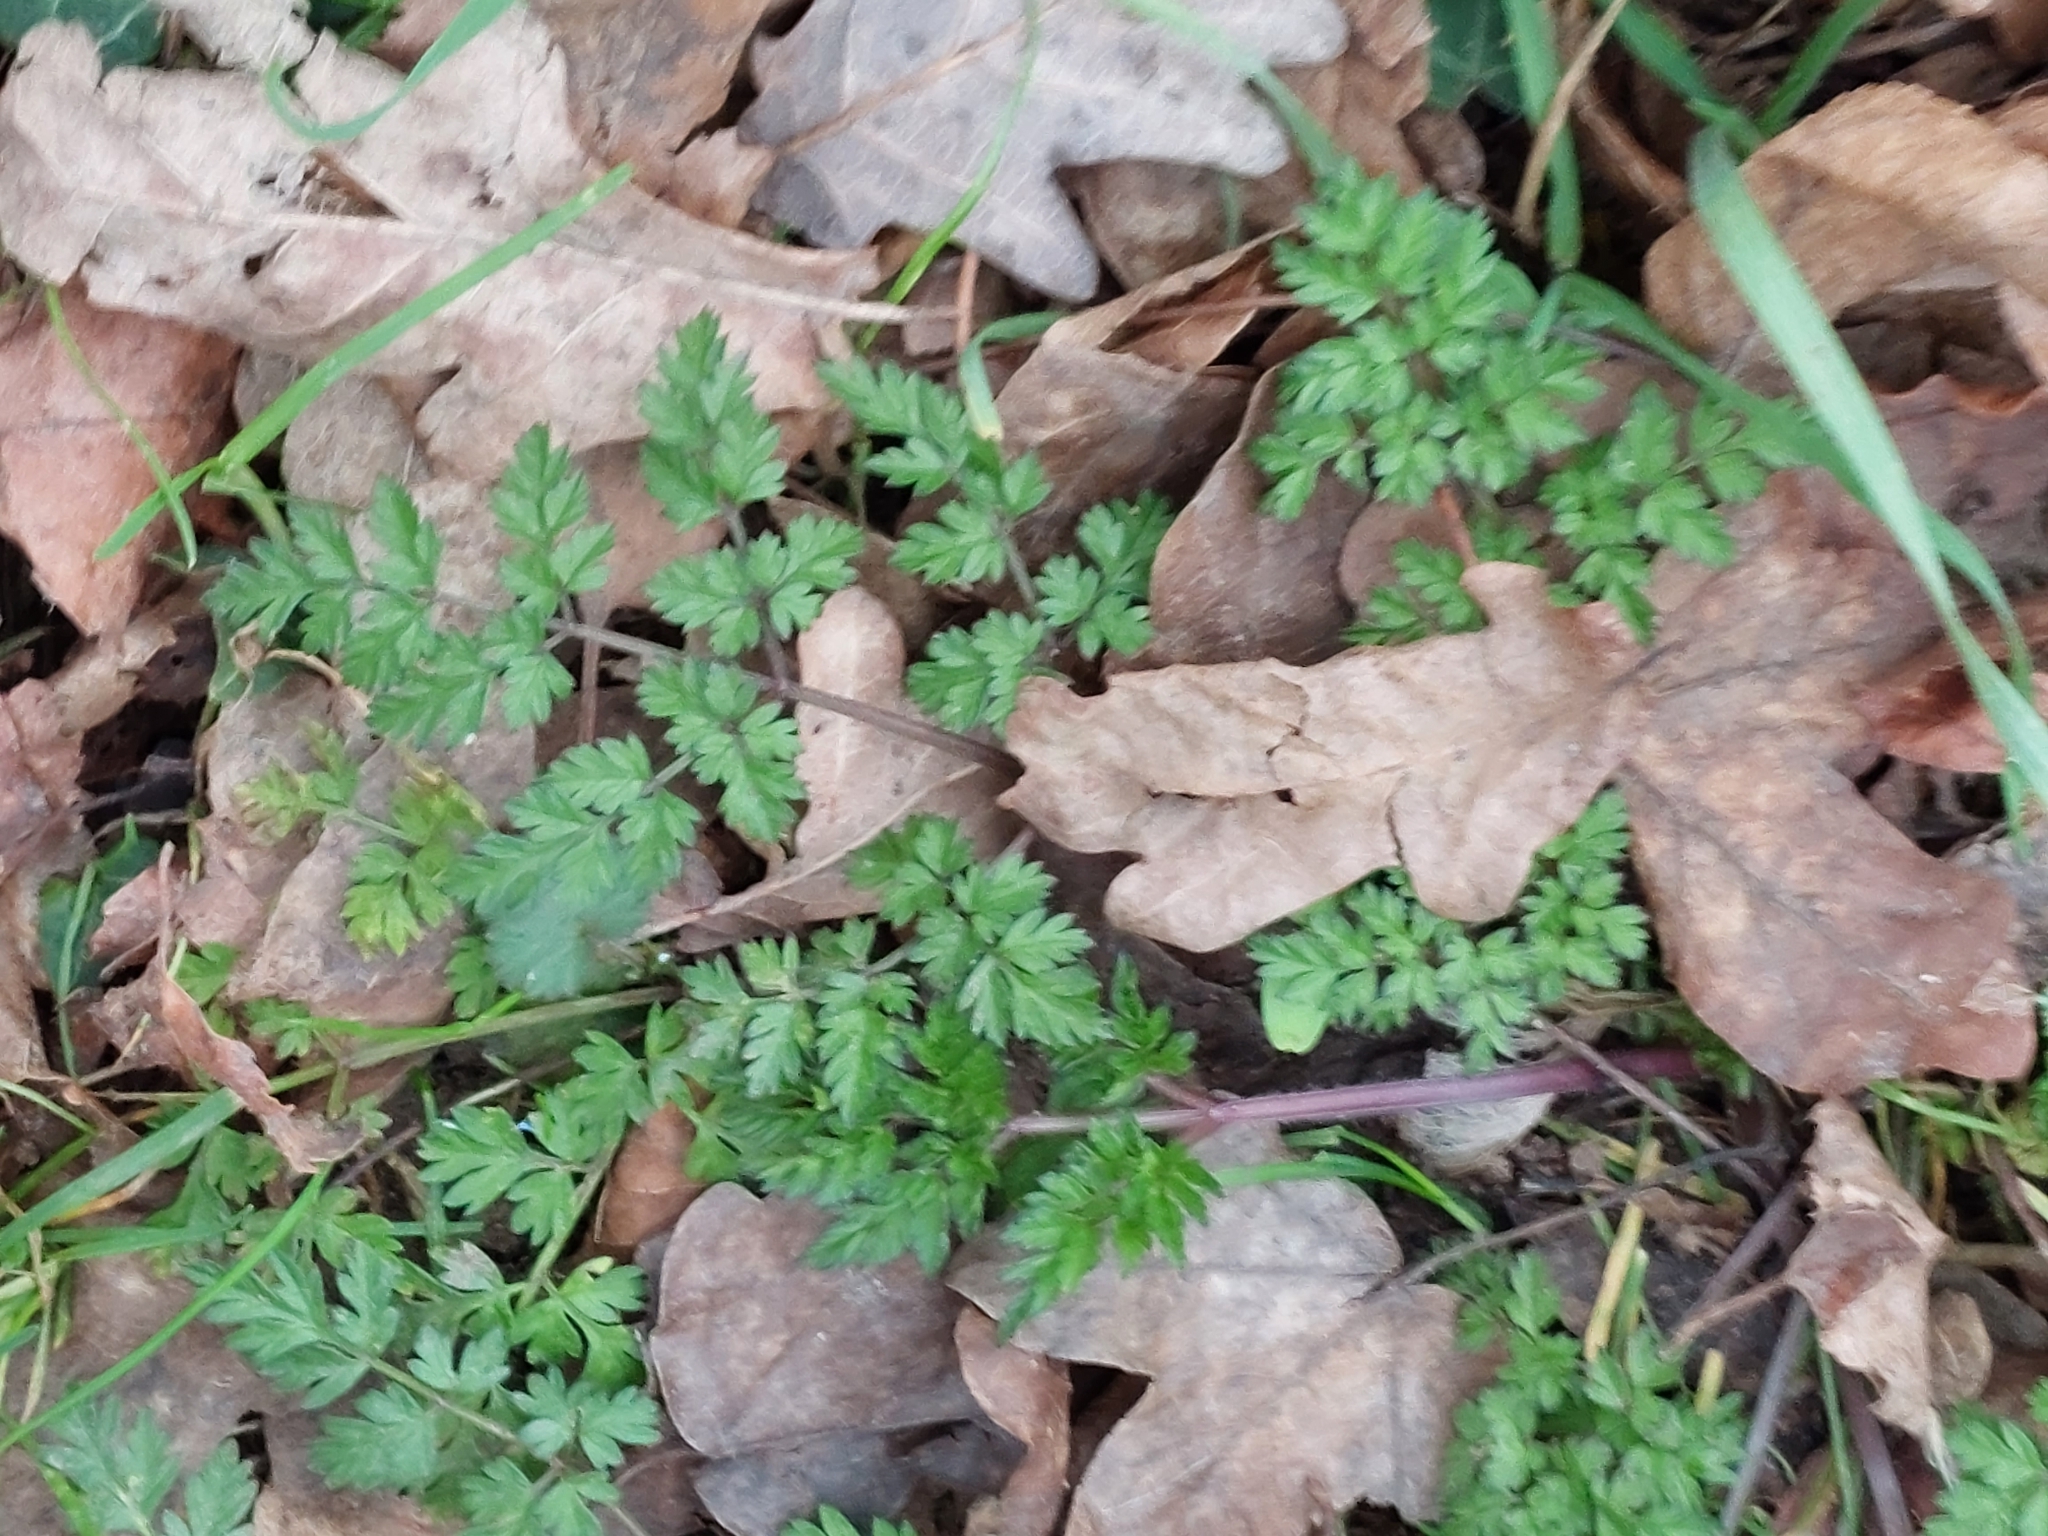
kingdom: Plantae
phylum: Tracheophyta
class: Magnoliopsida
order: Apiales
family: Apiaceae
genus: Anthriscus
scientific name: Anthriscus sylvestris
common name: Cow parsley
